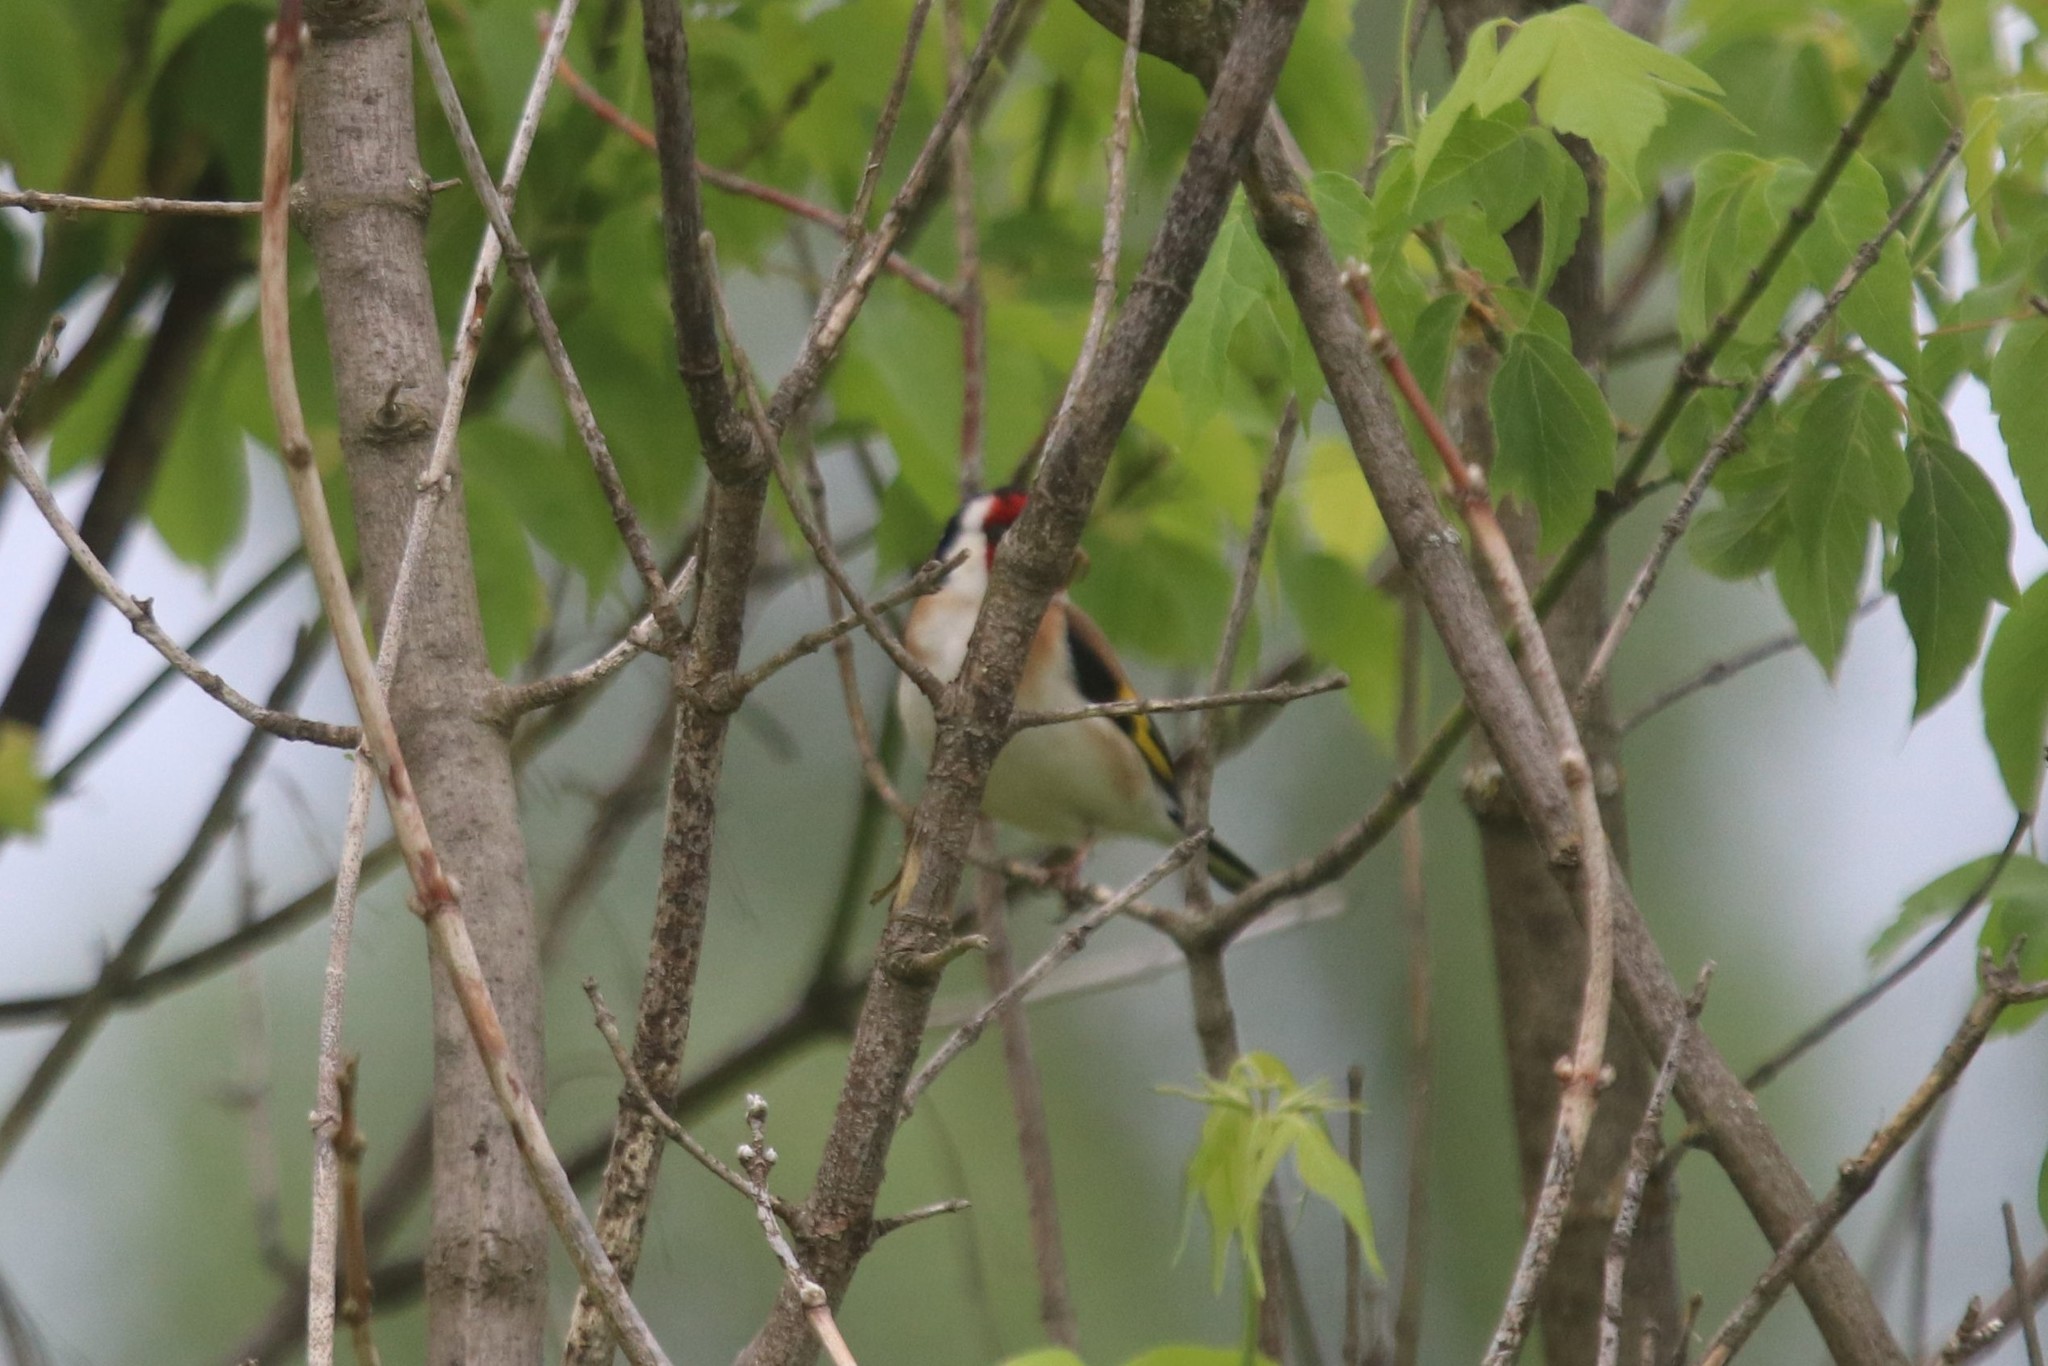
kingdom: Animalia
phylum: Chordata
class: Aves
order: Passeriformes
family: Fringillidae
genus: Carduelis
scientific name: Carduelis carduelis
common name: European goldfinch
